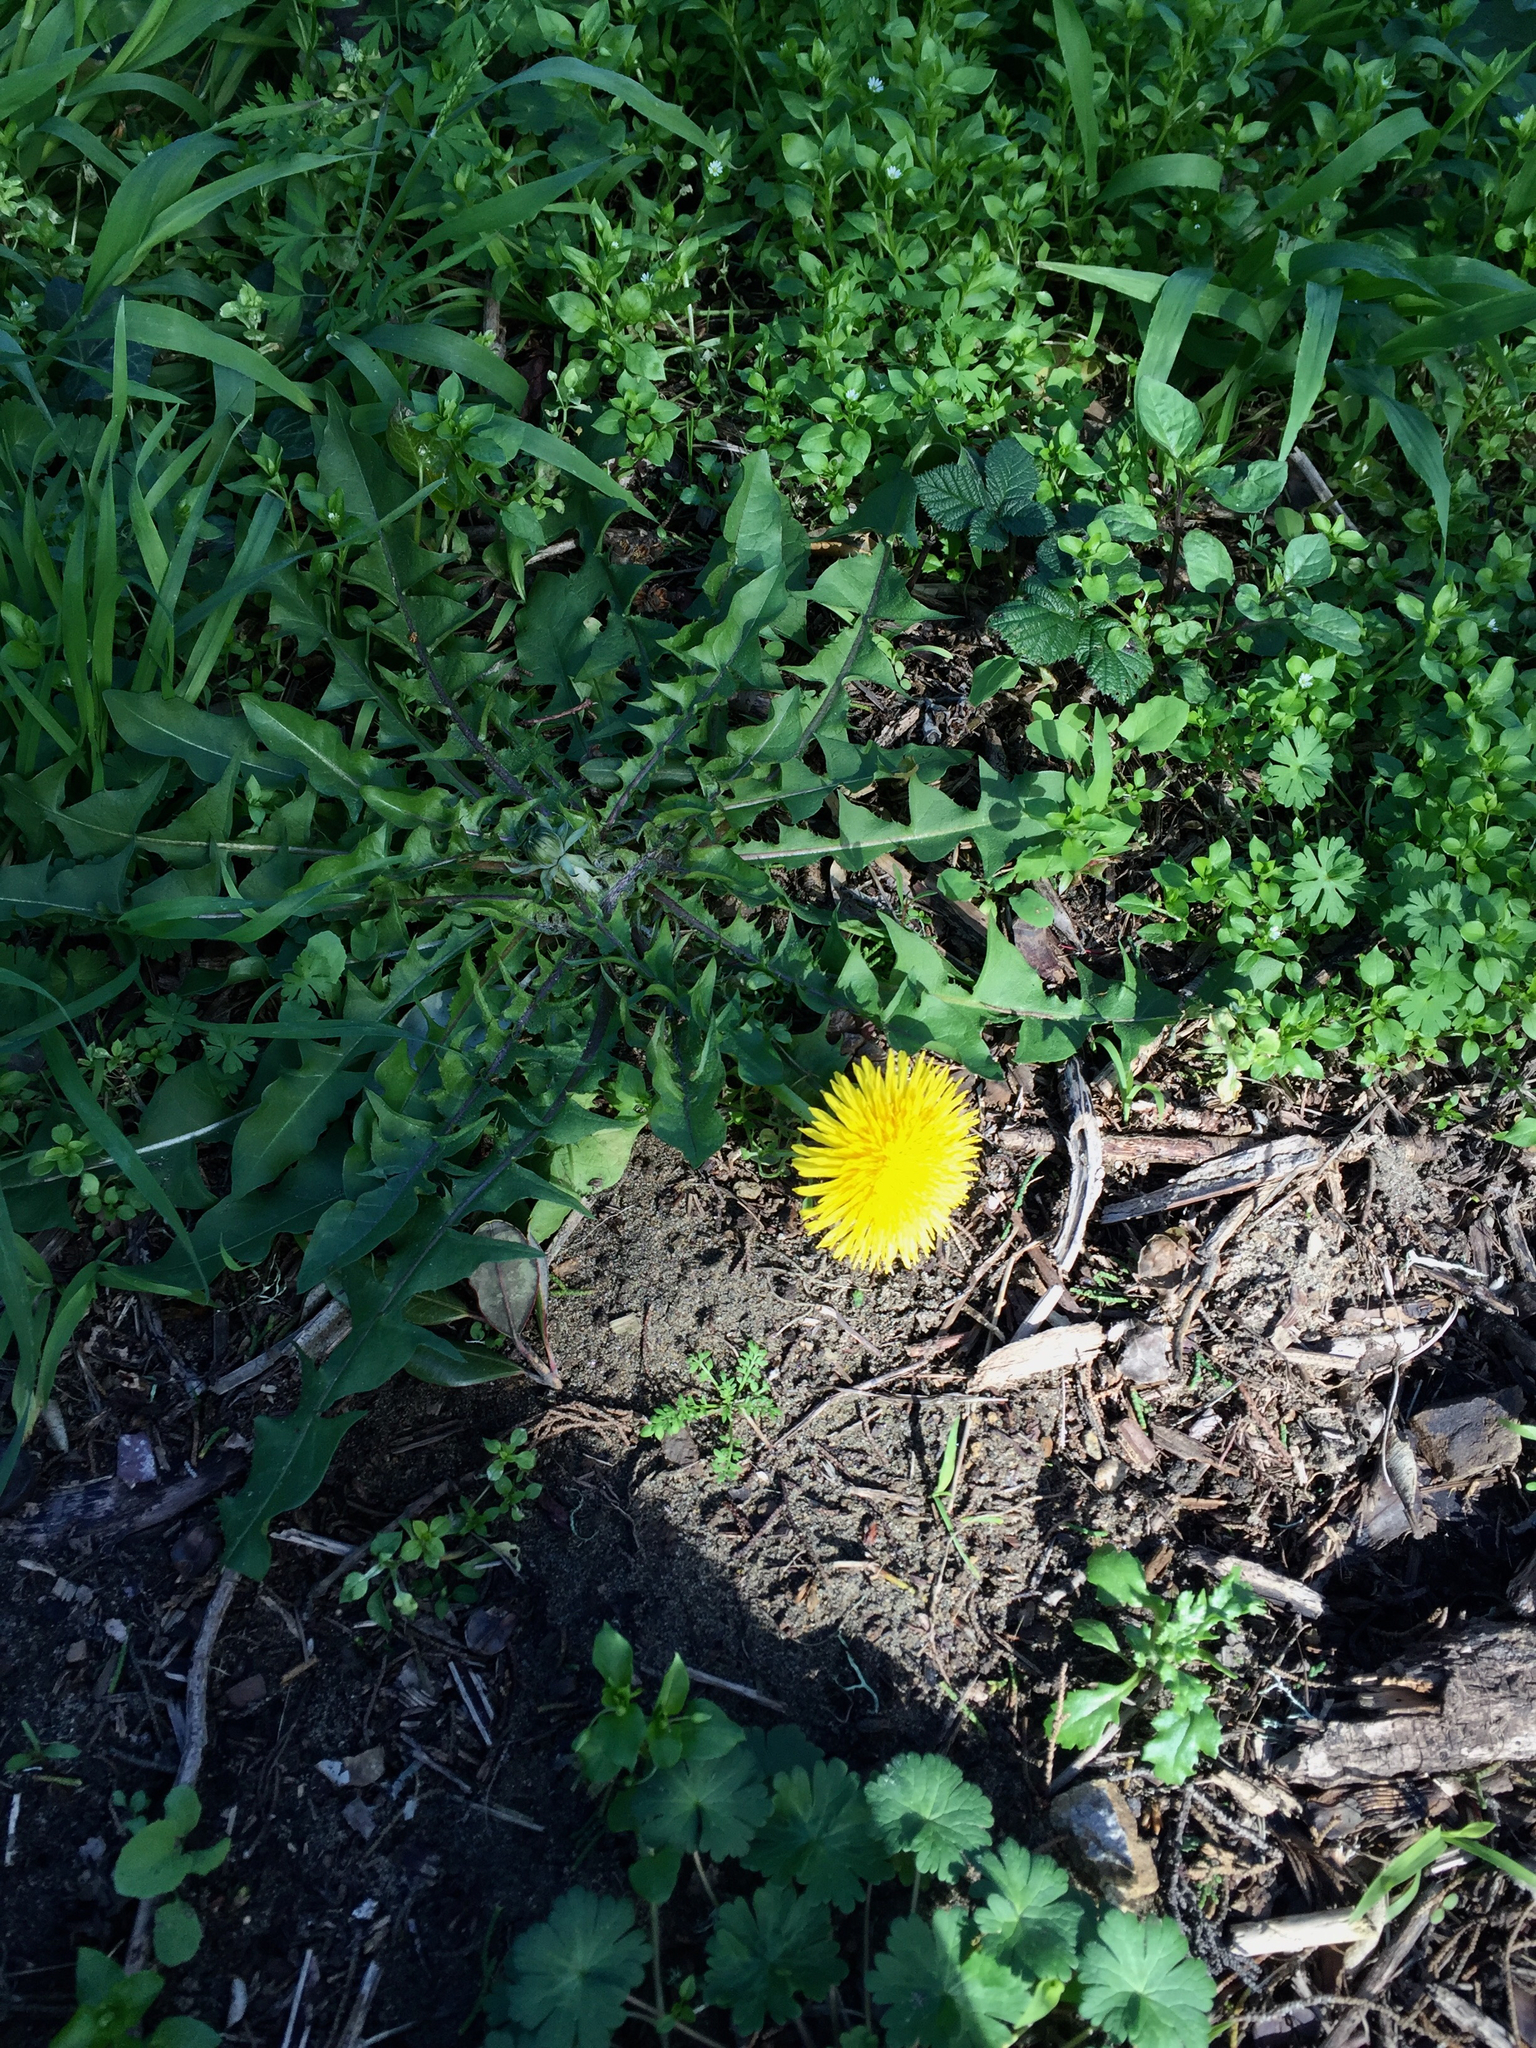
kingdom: Plantae
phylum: Tracheophyta
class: Magnoliopsida
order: Asterales
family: Asteraceae
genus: Taraxacum
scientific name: Taraxacum officinale
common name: Common dandelion
